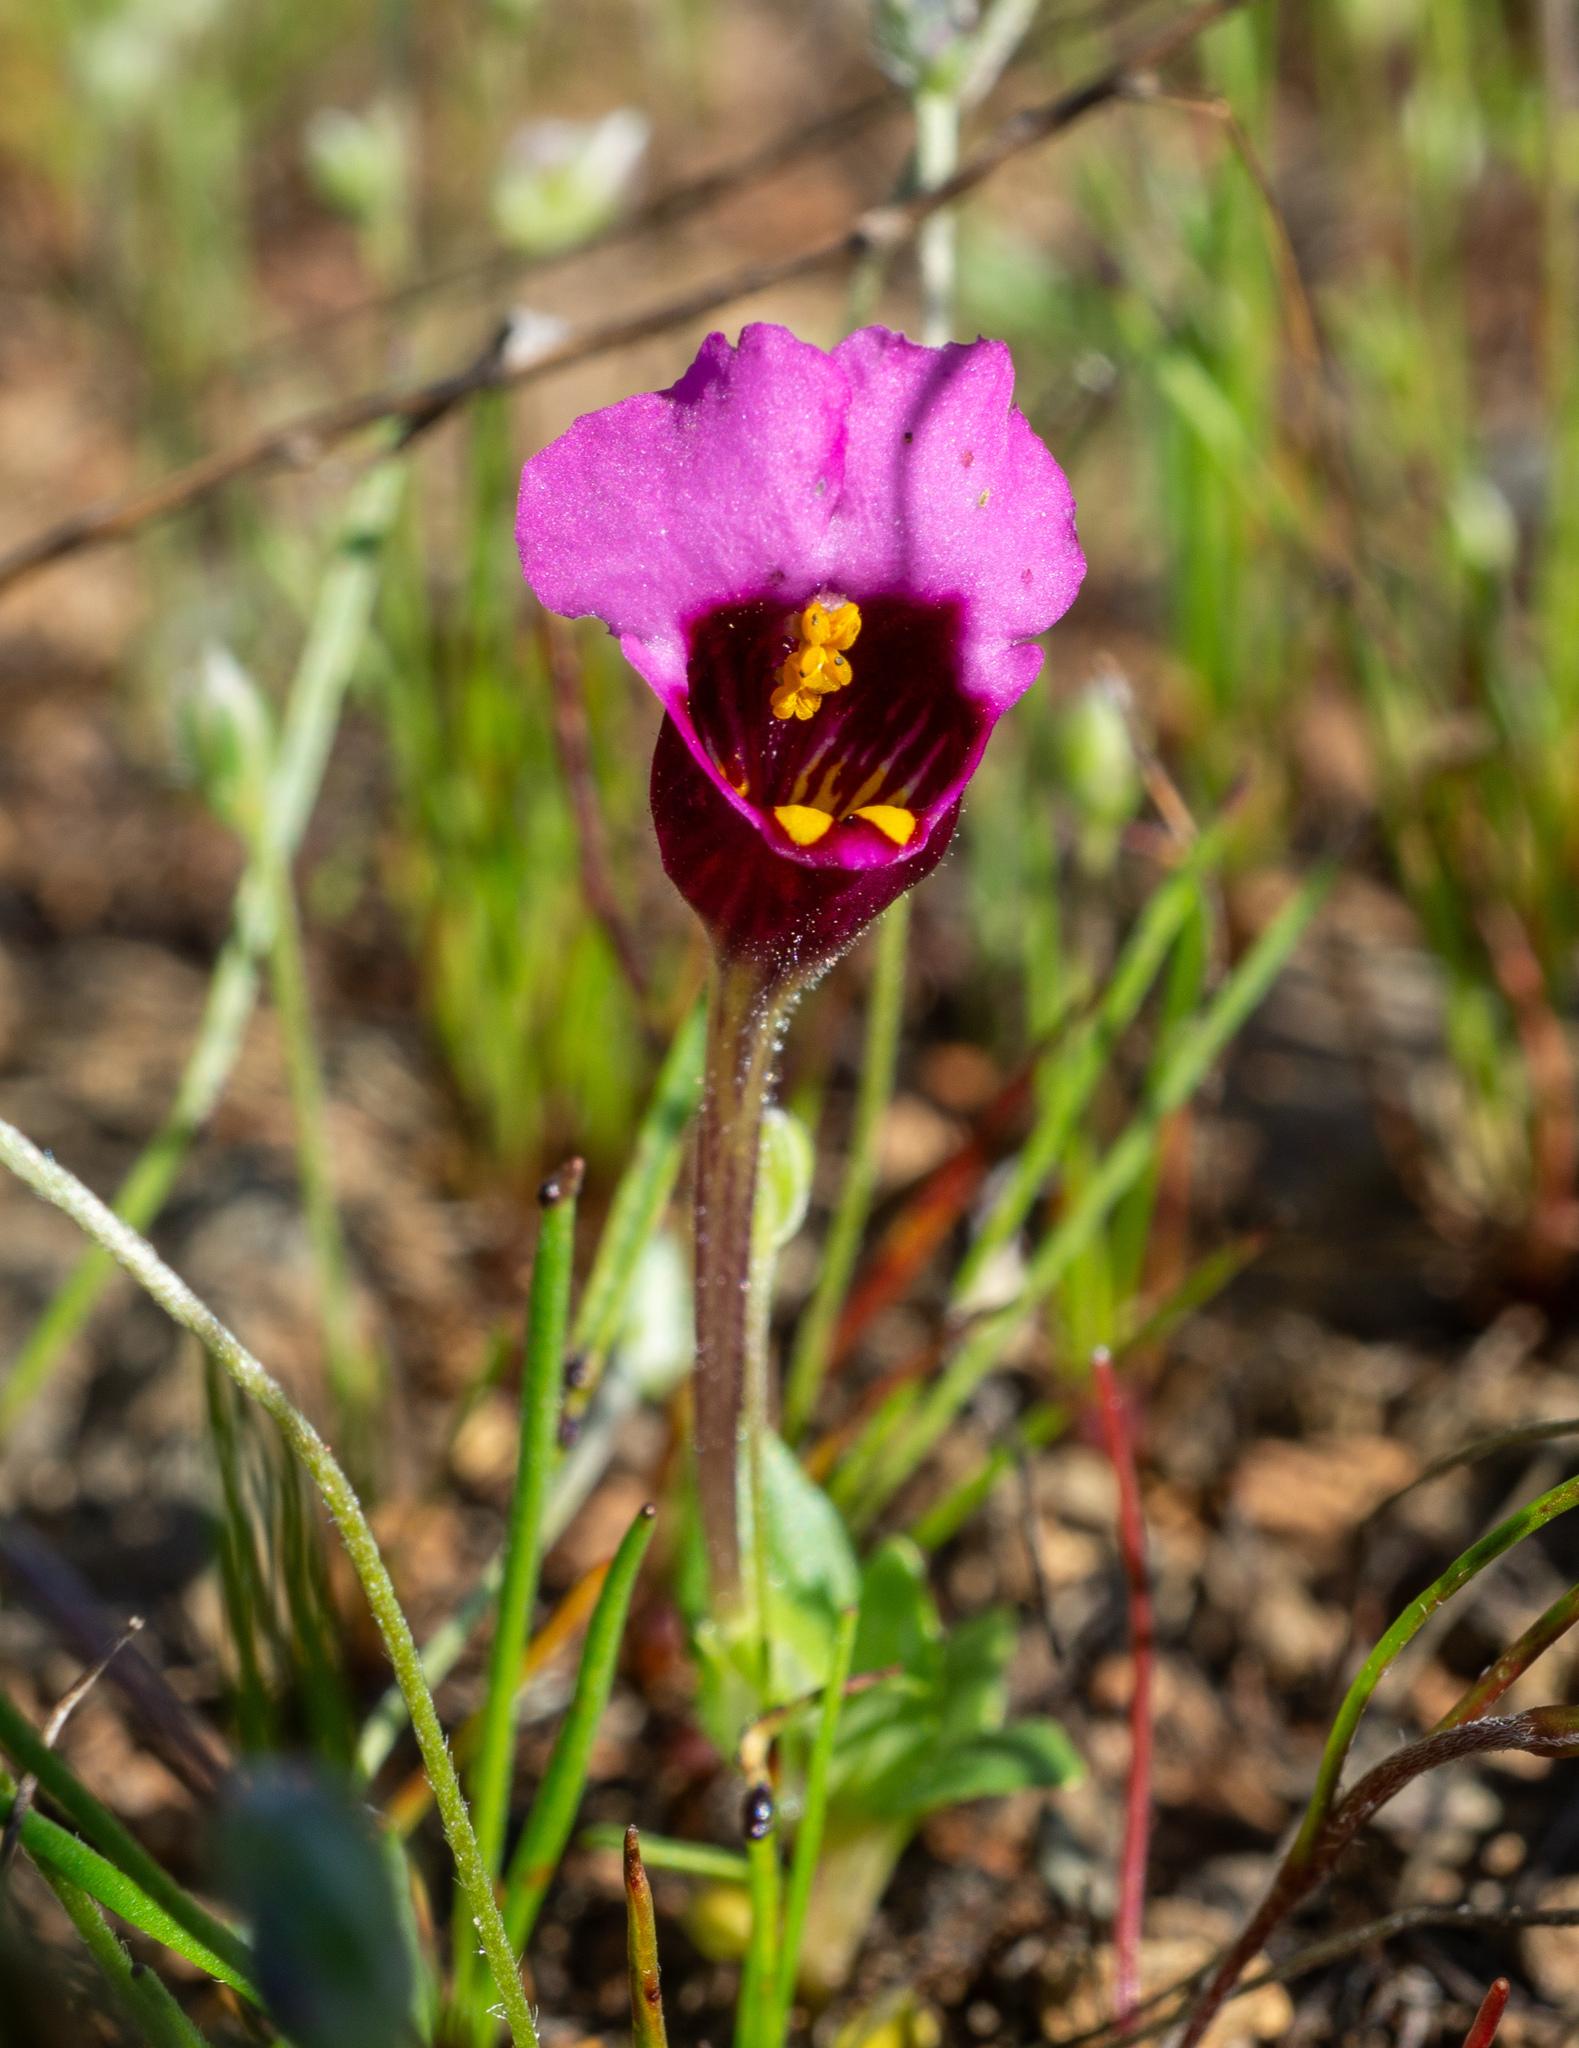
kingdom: Plantae
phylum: Tracheophyta
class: Magnoliopsida
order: Lamiales
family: Phrymaceae
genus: Diplacus
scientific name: Diplacus douglasii
